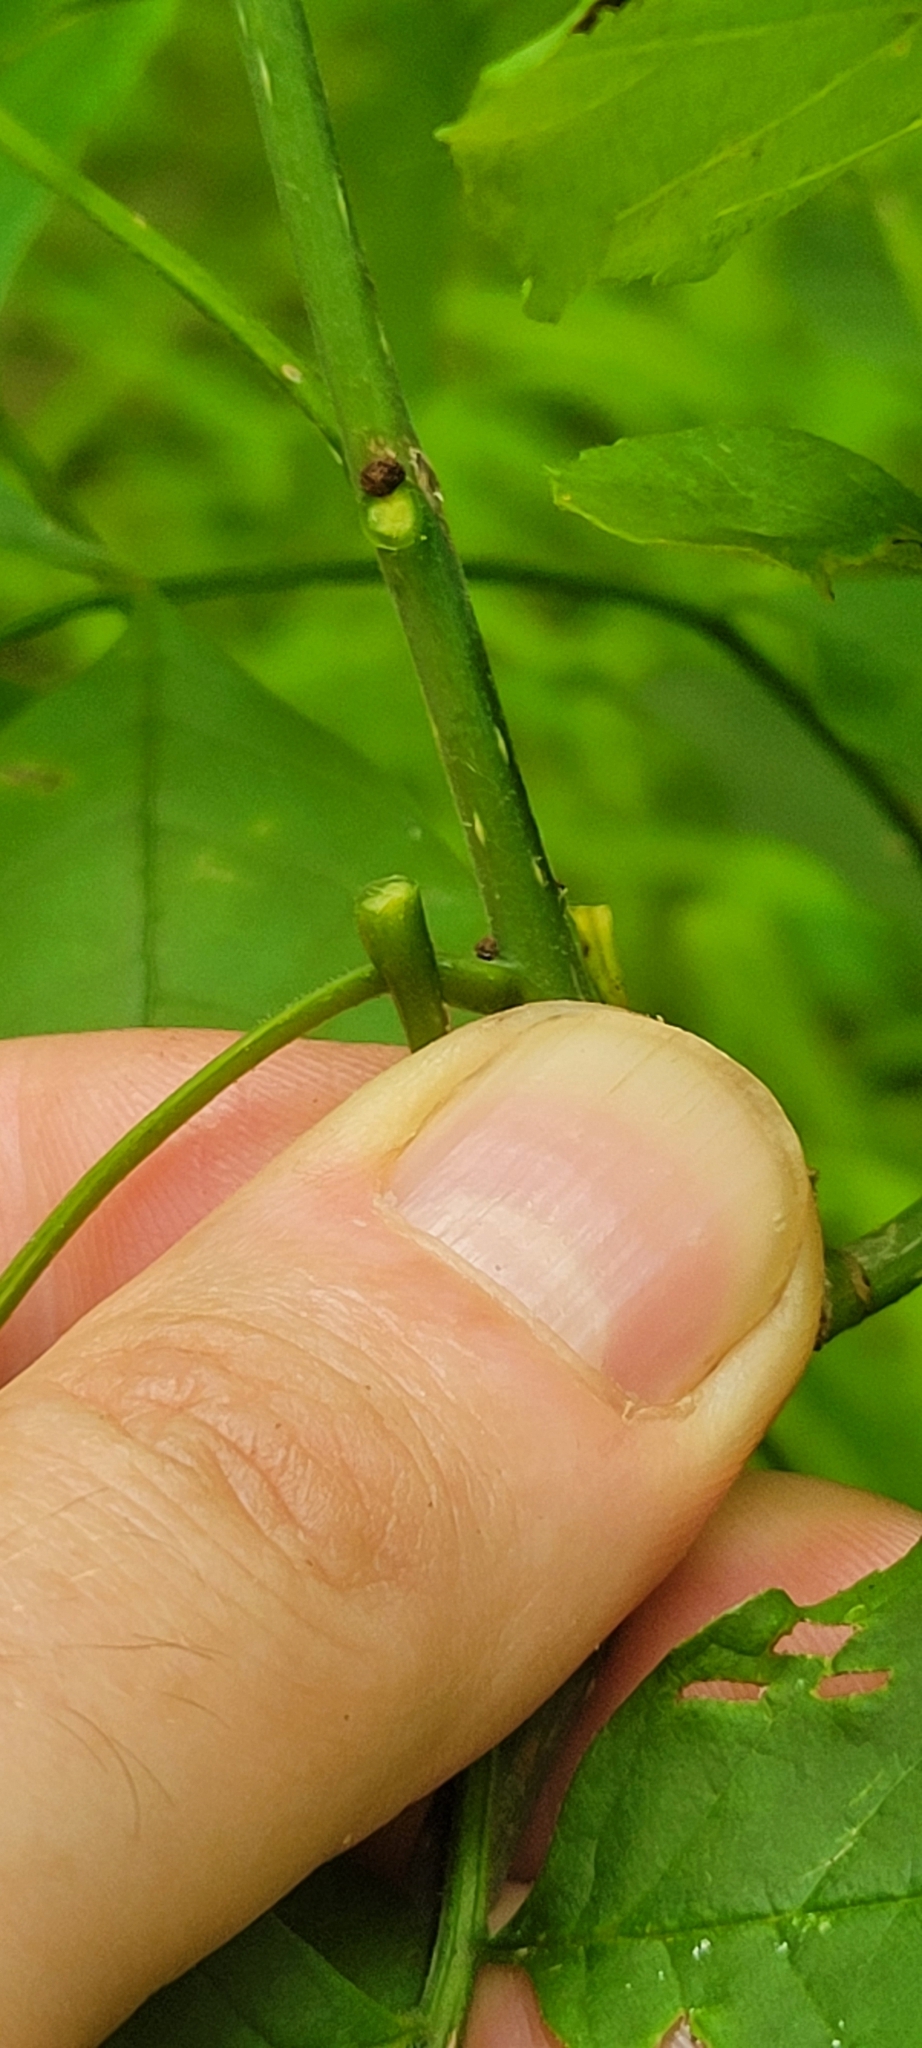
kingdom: Plantae
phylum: Tracheophyta
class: Magnoliopsida
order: Lamiales
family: Oleaceae
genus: Fraxinus
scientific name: Fraxinus pennsylvanica
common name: Green ash
